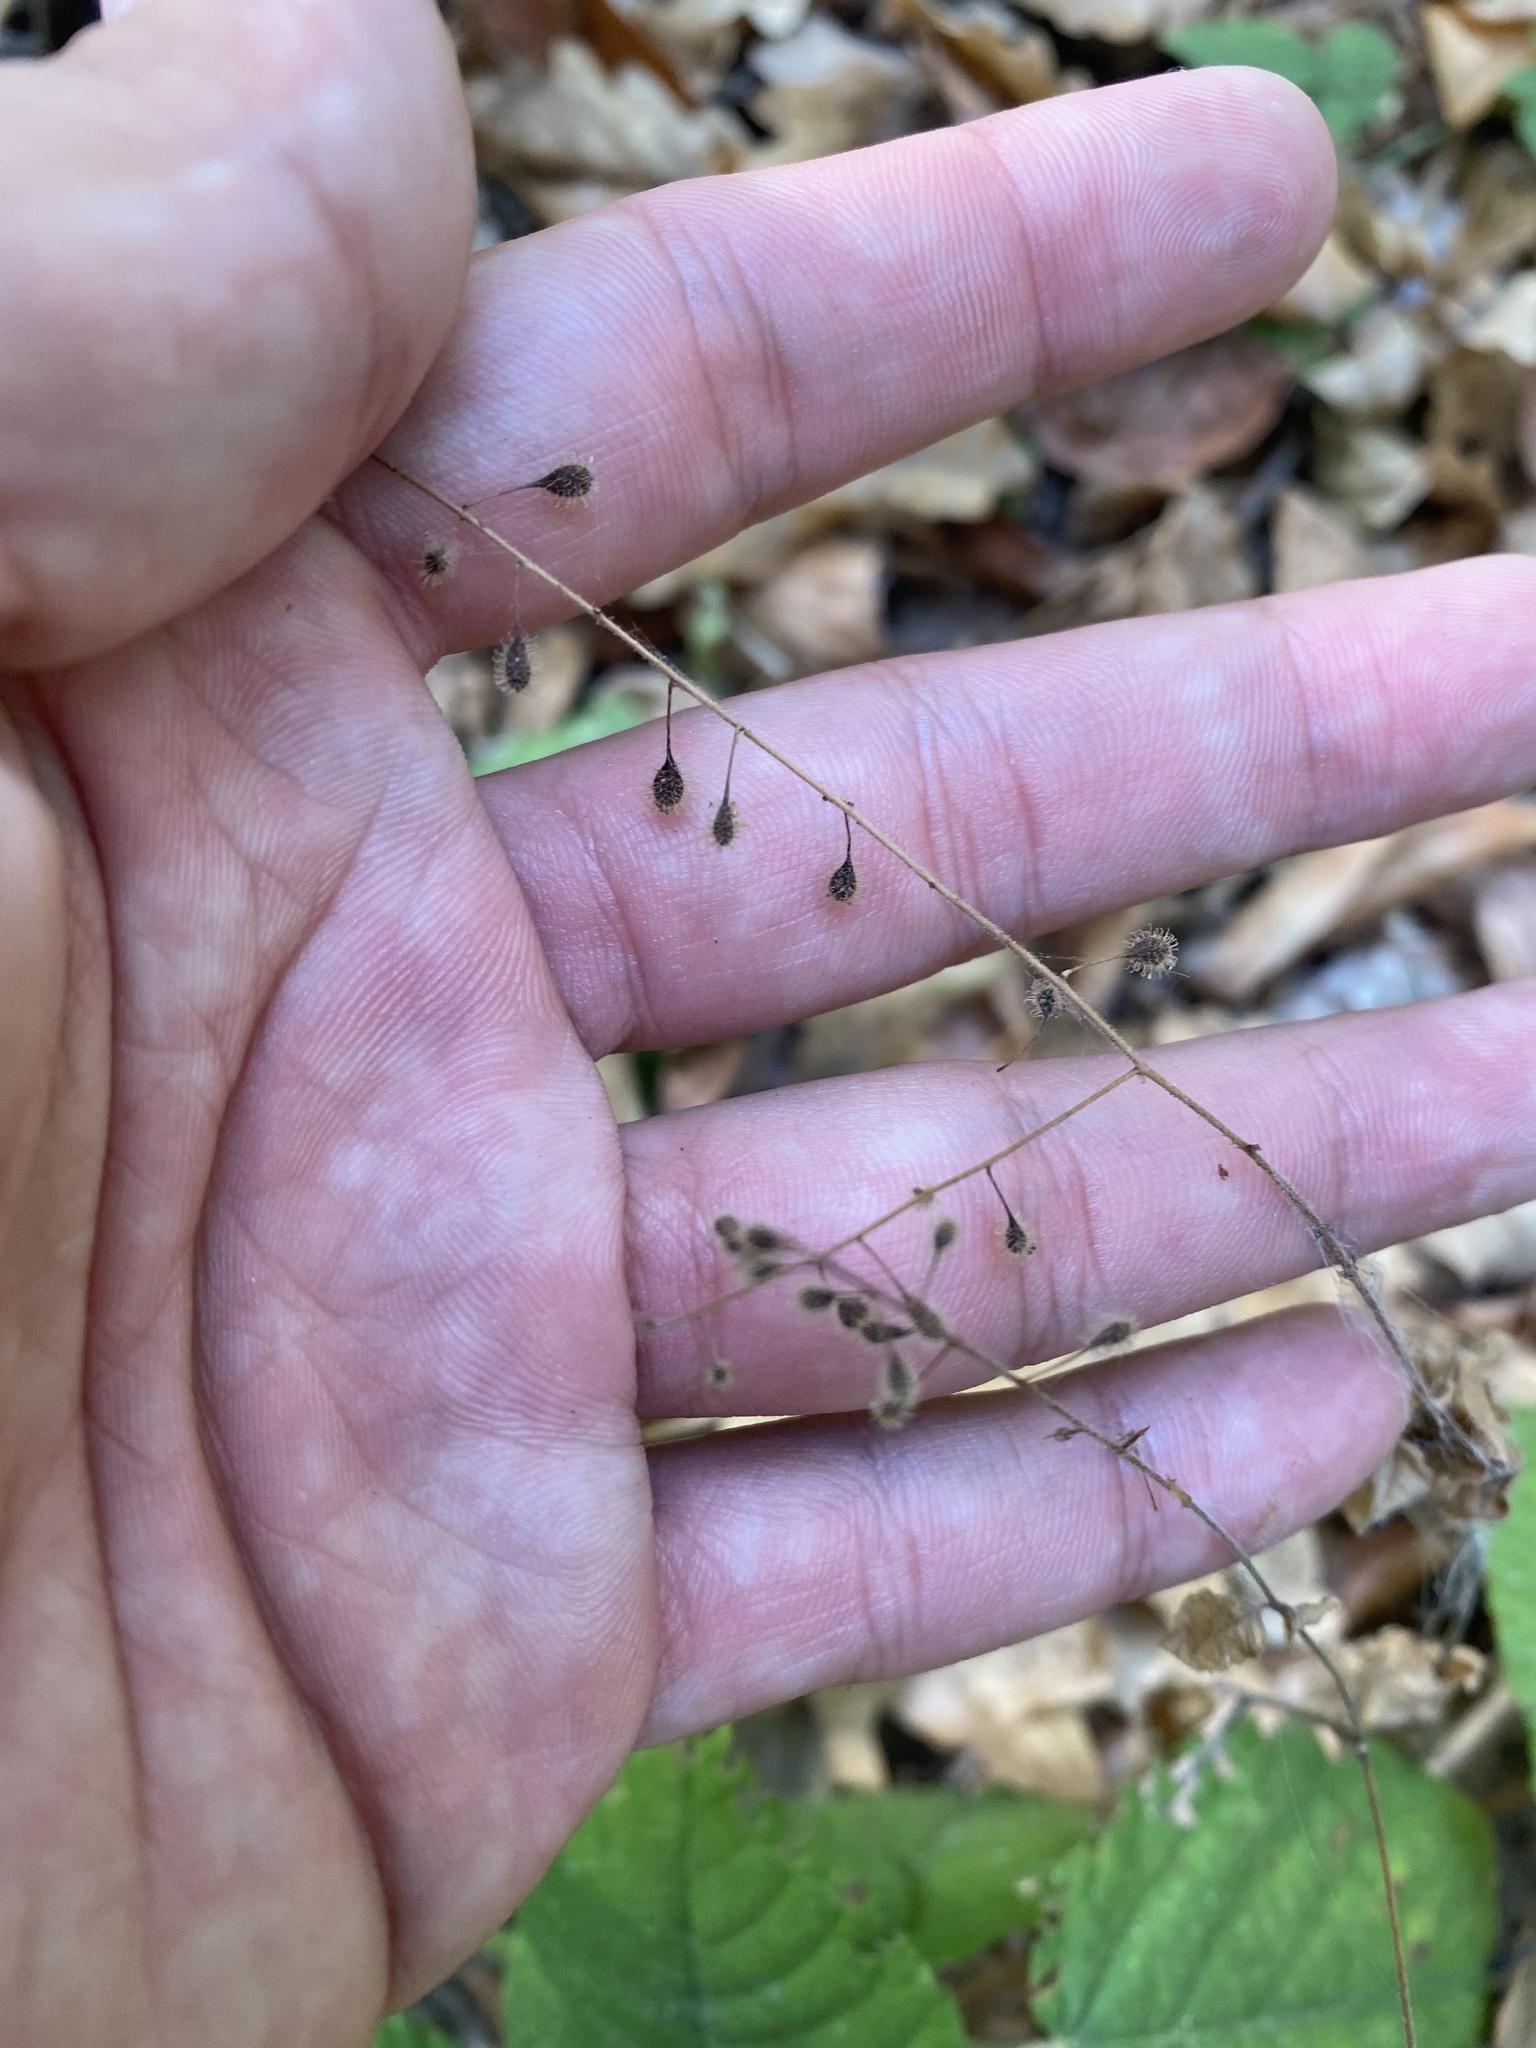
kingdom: Plantae
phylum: Tracheophyta
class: Magnoliopsida
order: Myrtales
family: Onagraceae
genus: Circaea
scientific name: Circaea lutetiana
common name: Enchanter's-nightshade
